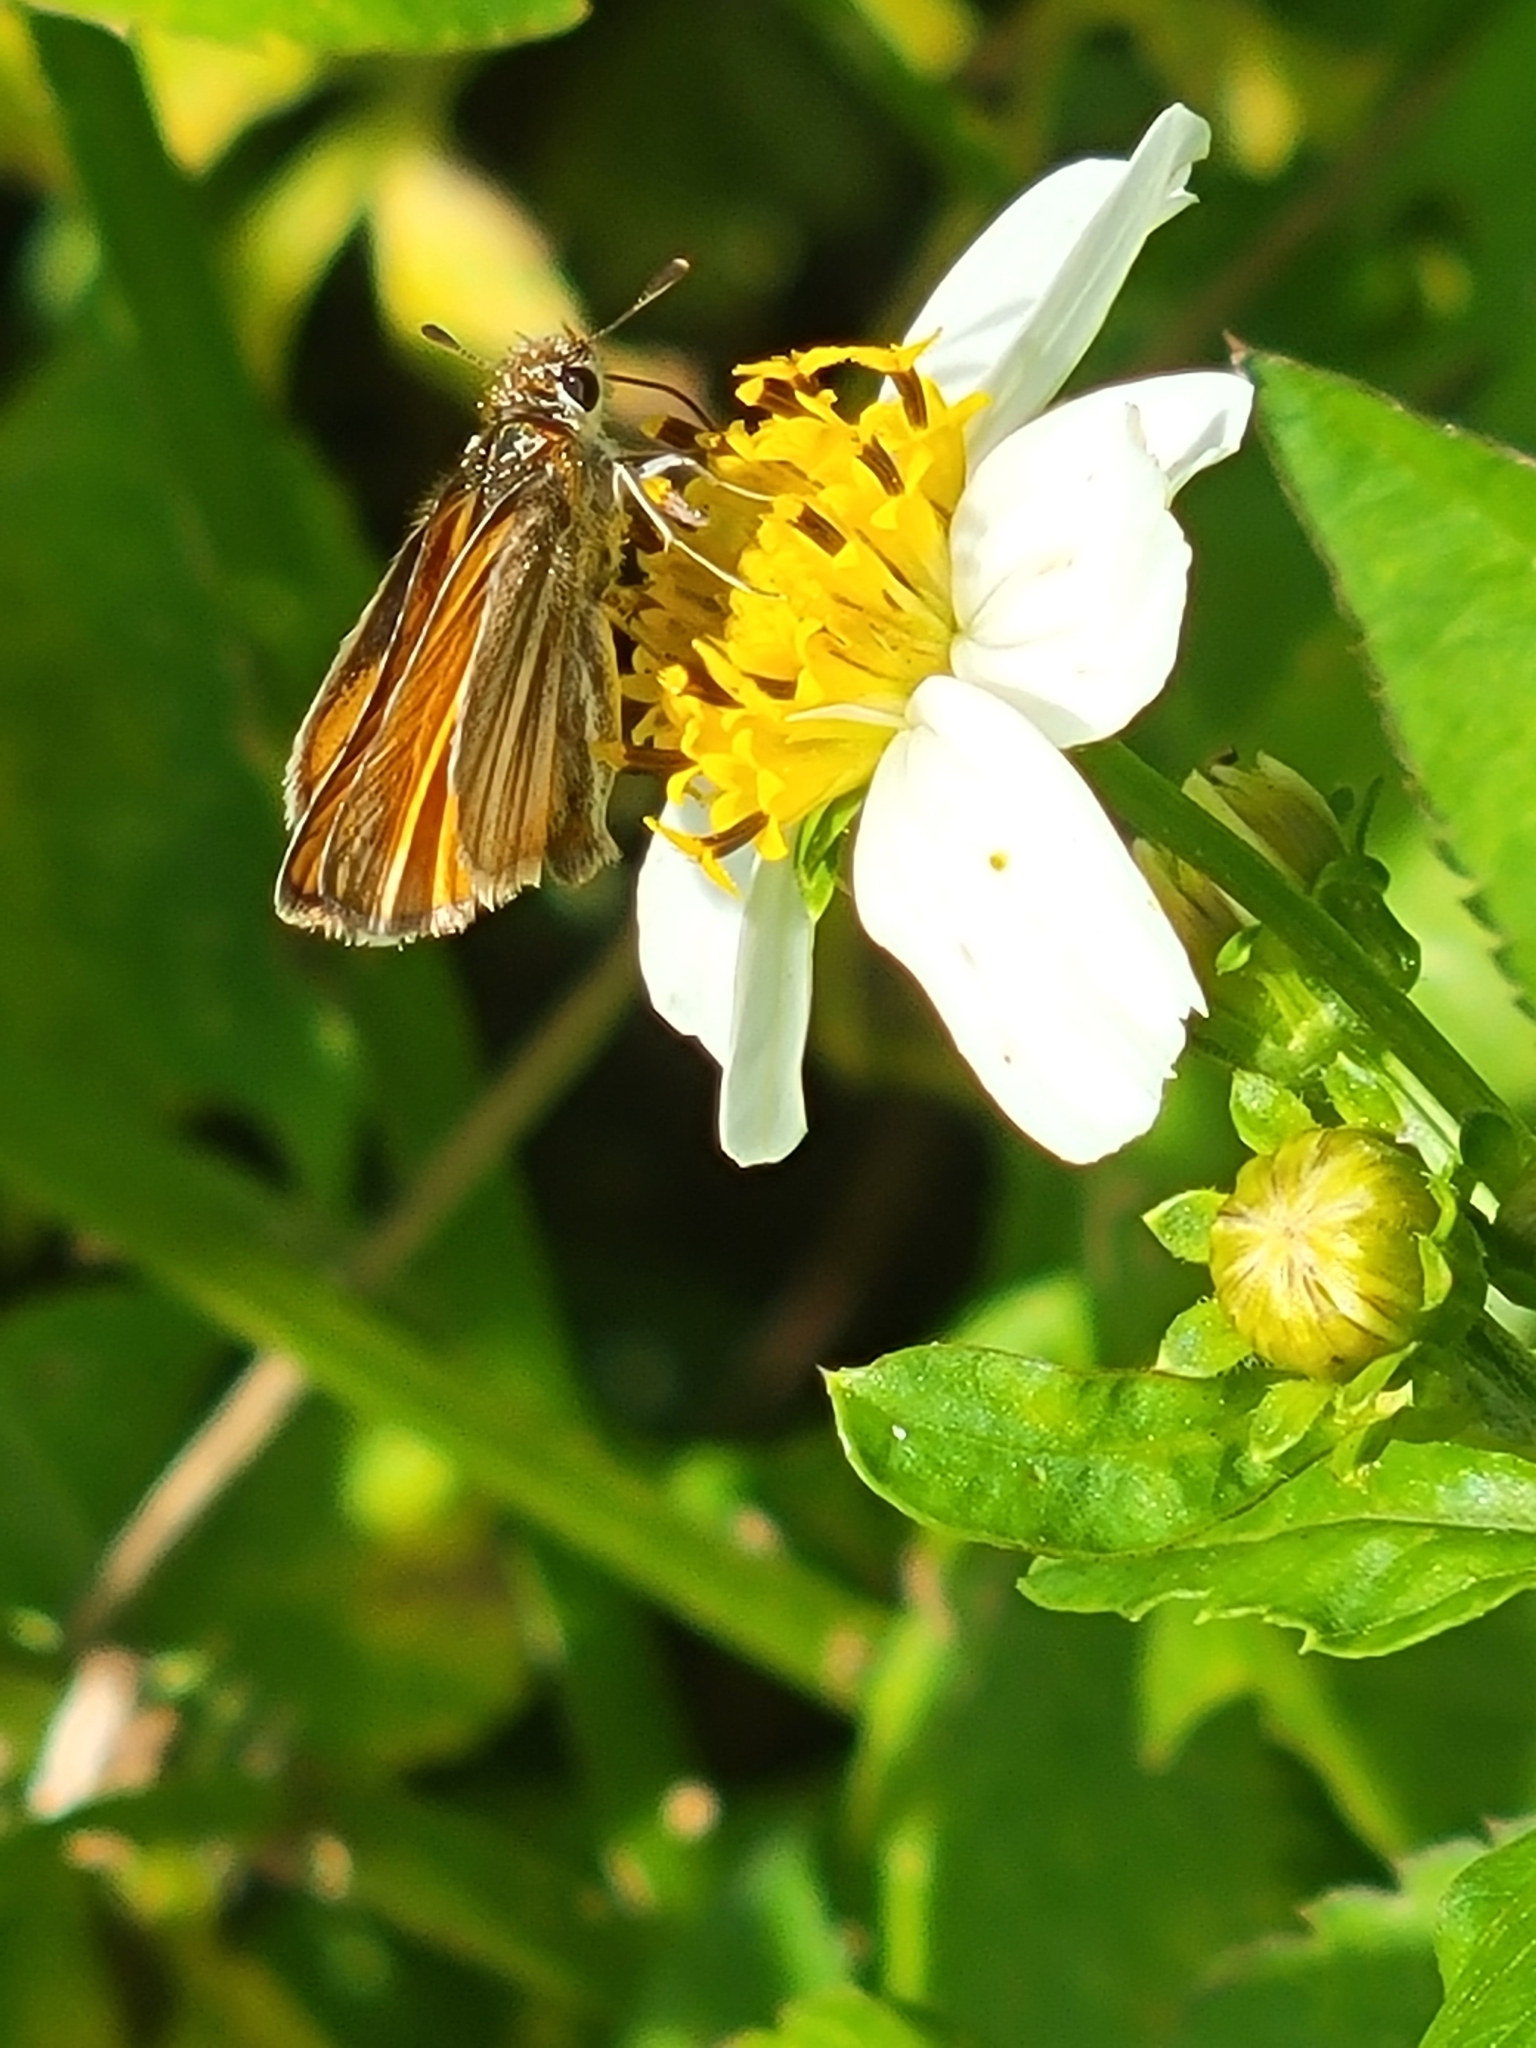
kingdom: Animalia
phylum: Arthropoda
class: Insecta
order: Lepidoptera
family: Hesperiidae
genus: Copaeodes
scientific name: Copaeodes minima
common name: Southern skipperling
